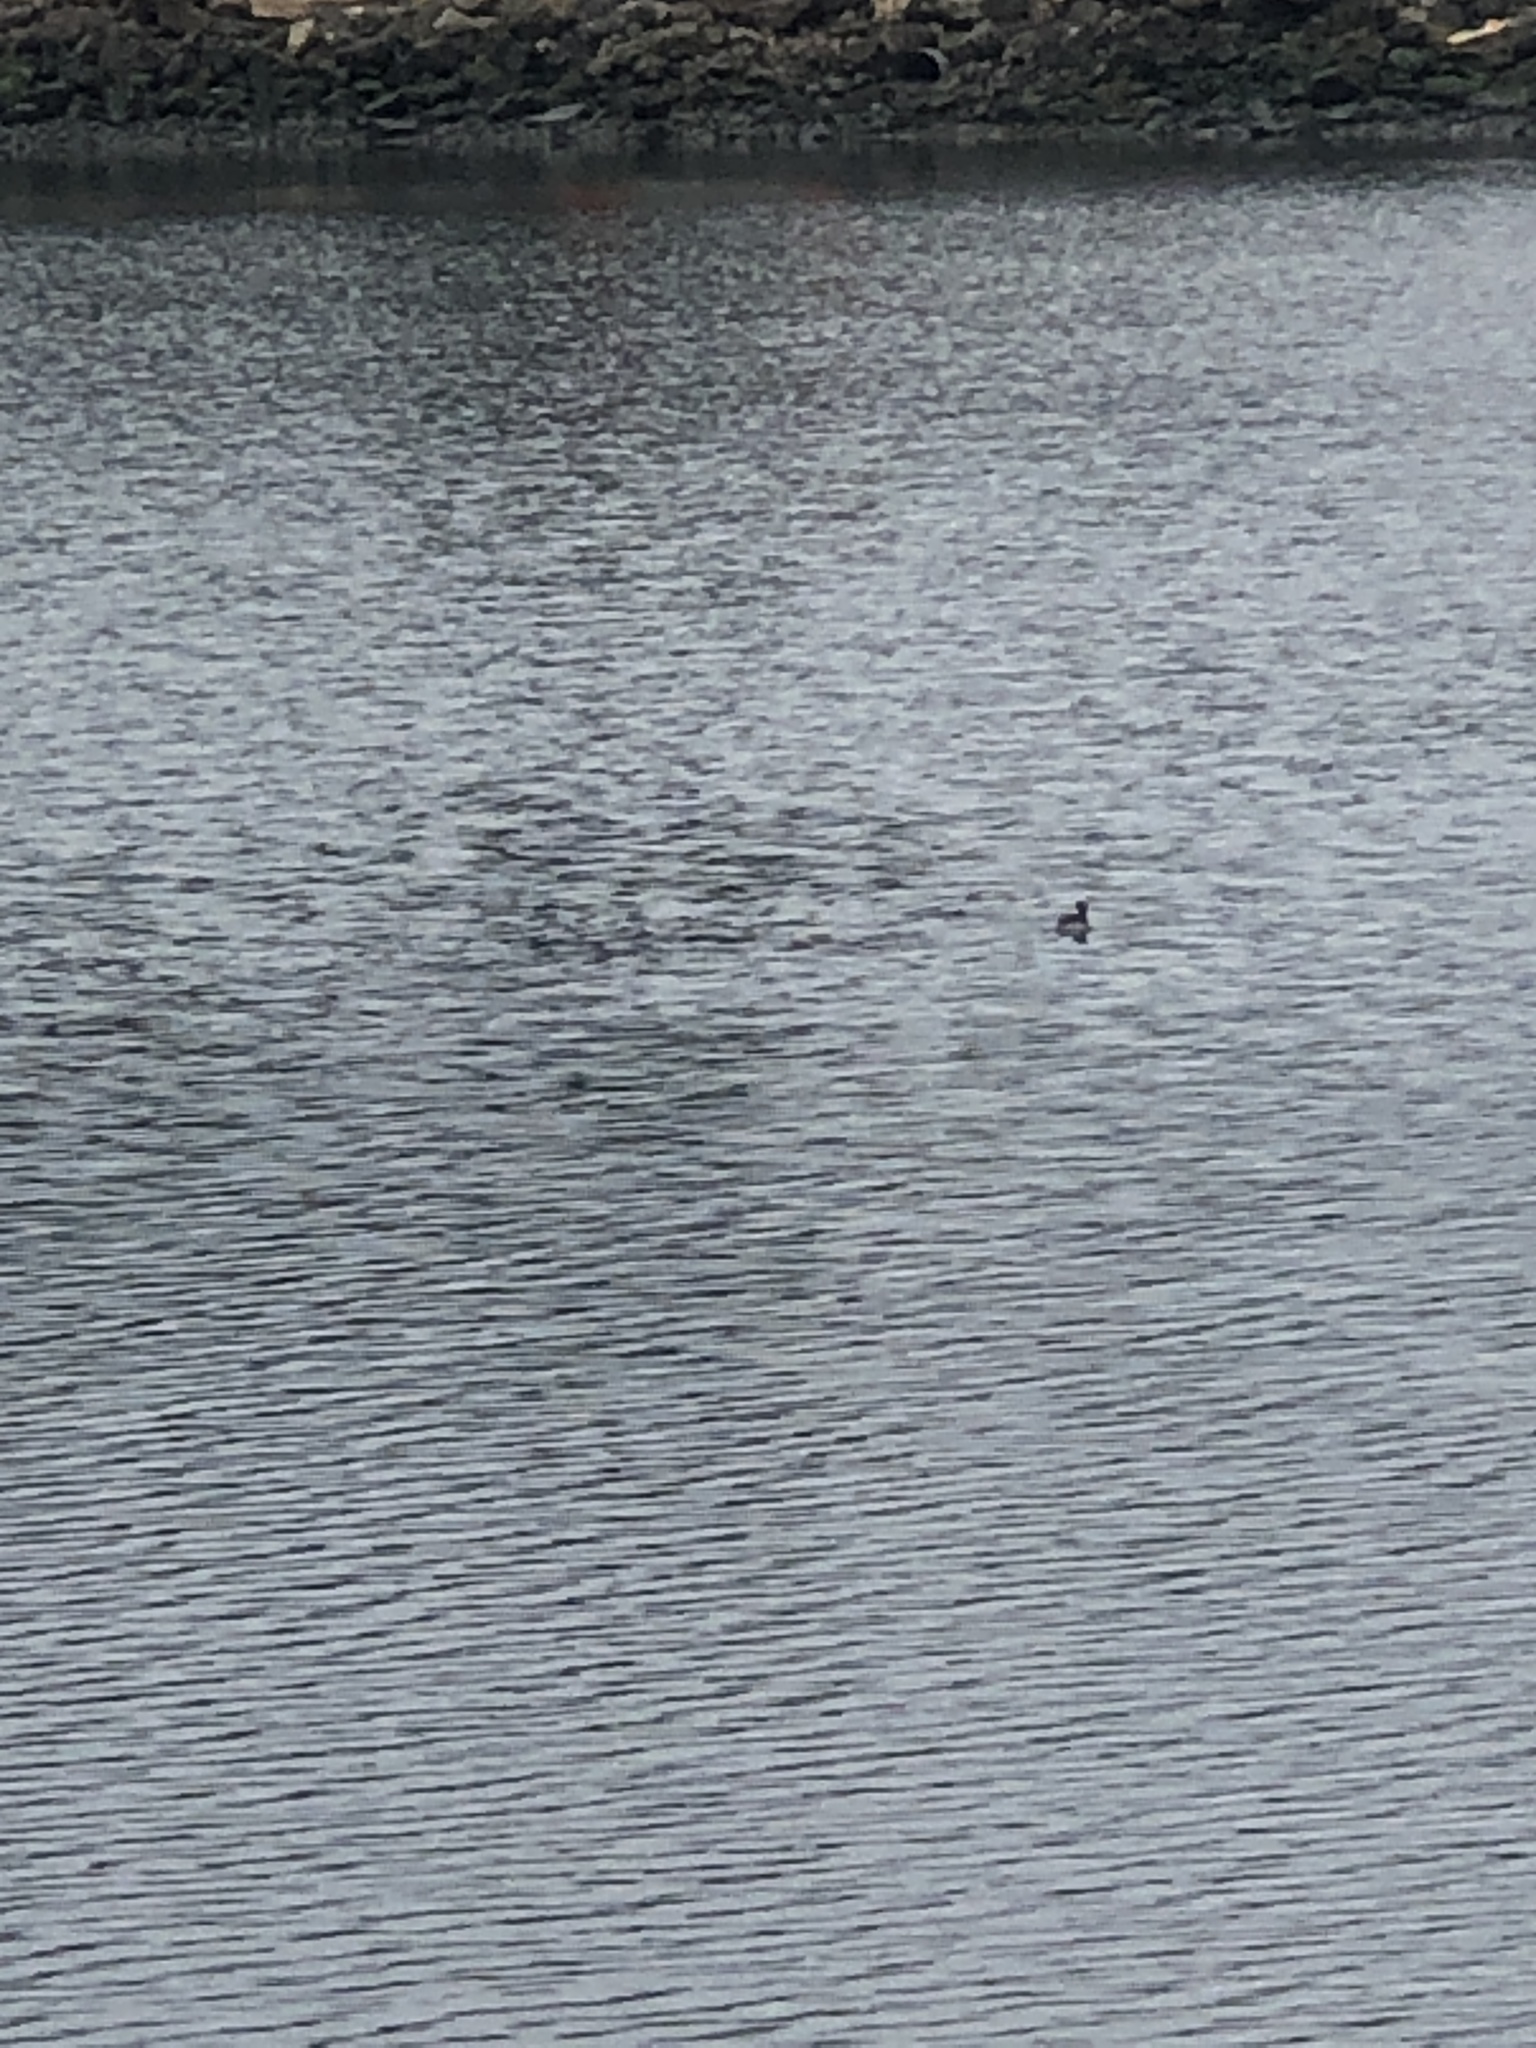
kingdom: Animalia
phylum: Chordata
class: Aves
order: Anseriformes
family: Anatidae
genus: Bucephala
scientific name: Bucephala islandica
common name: Barrow's goldeneye
